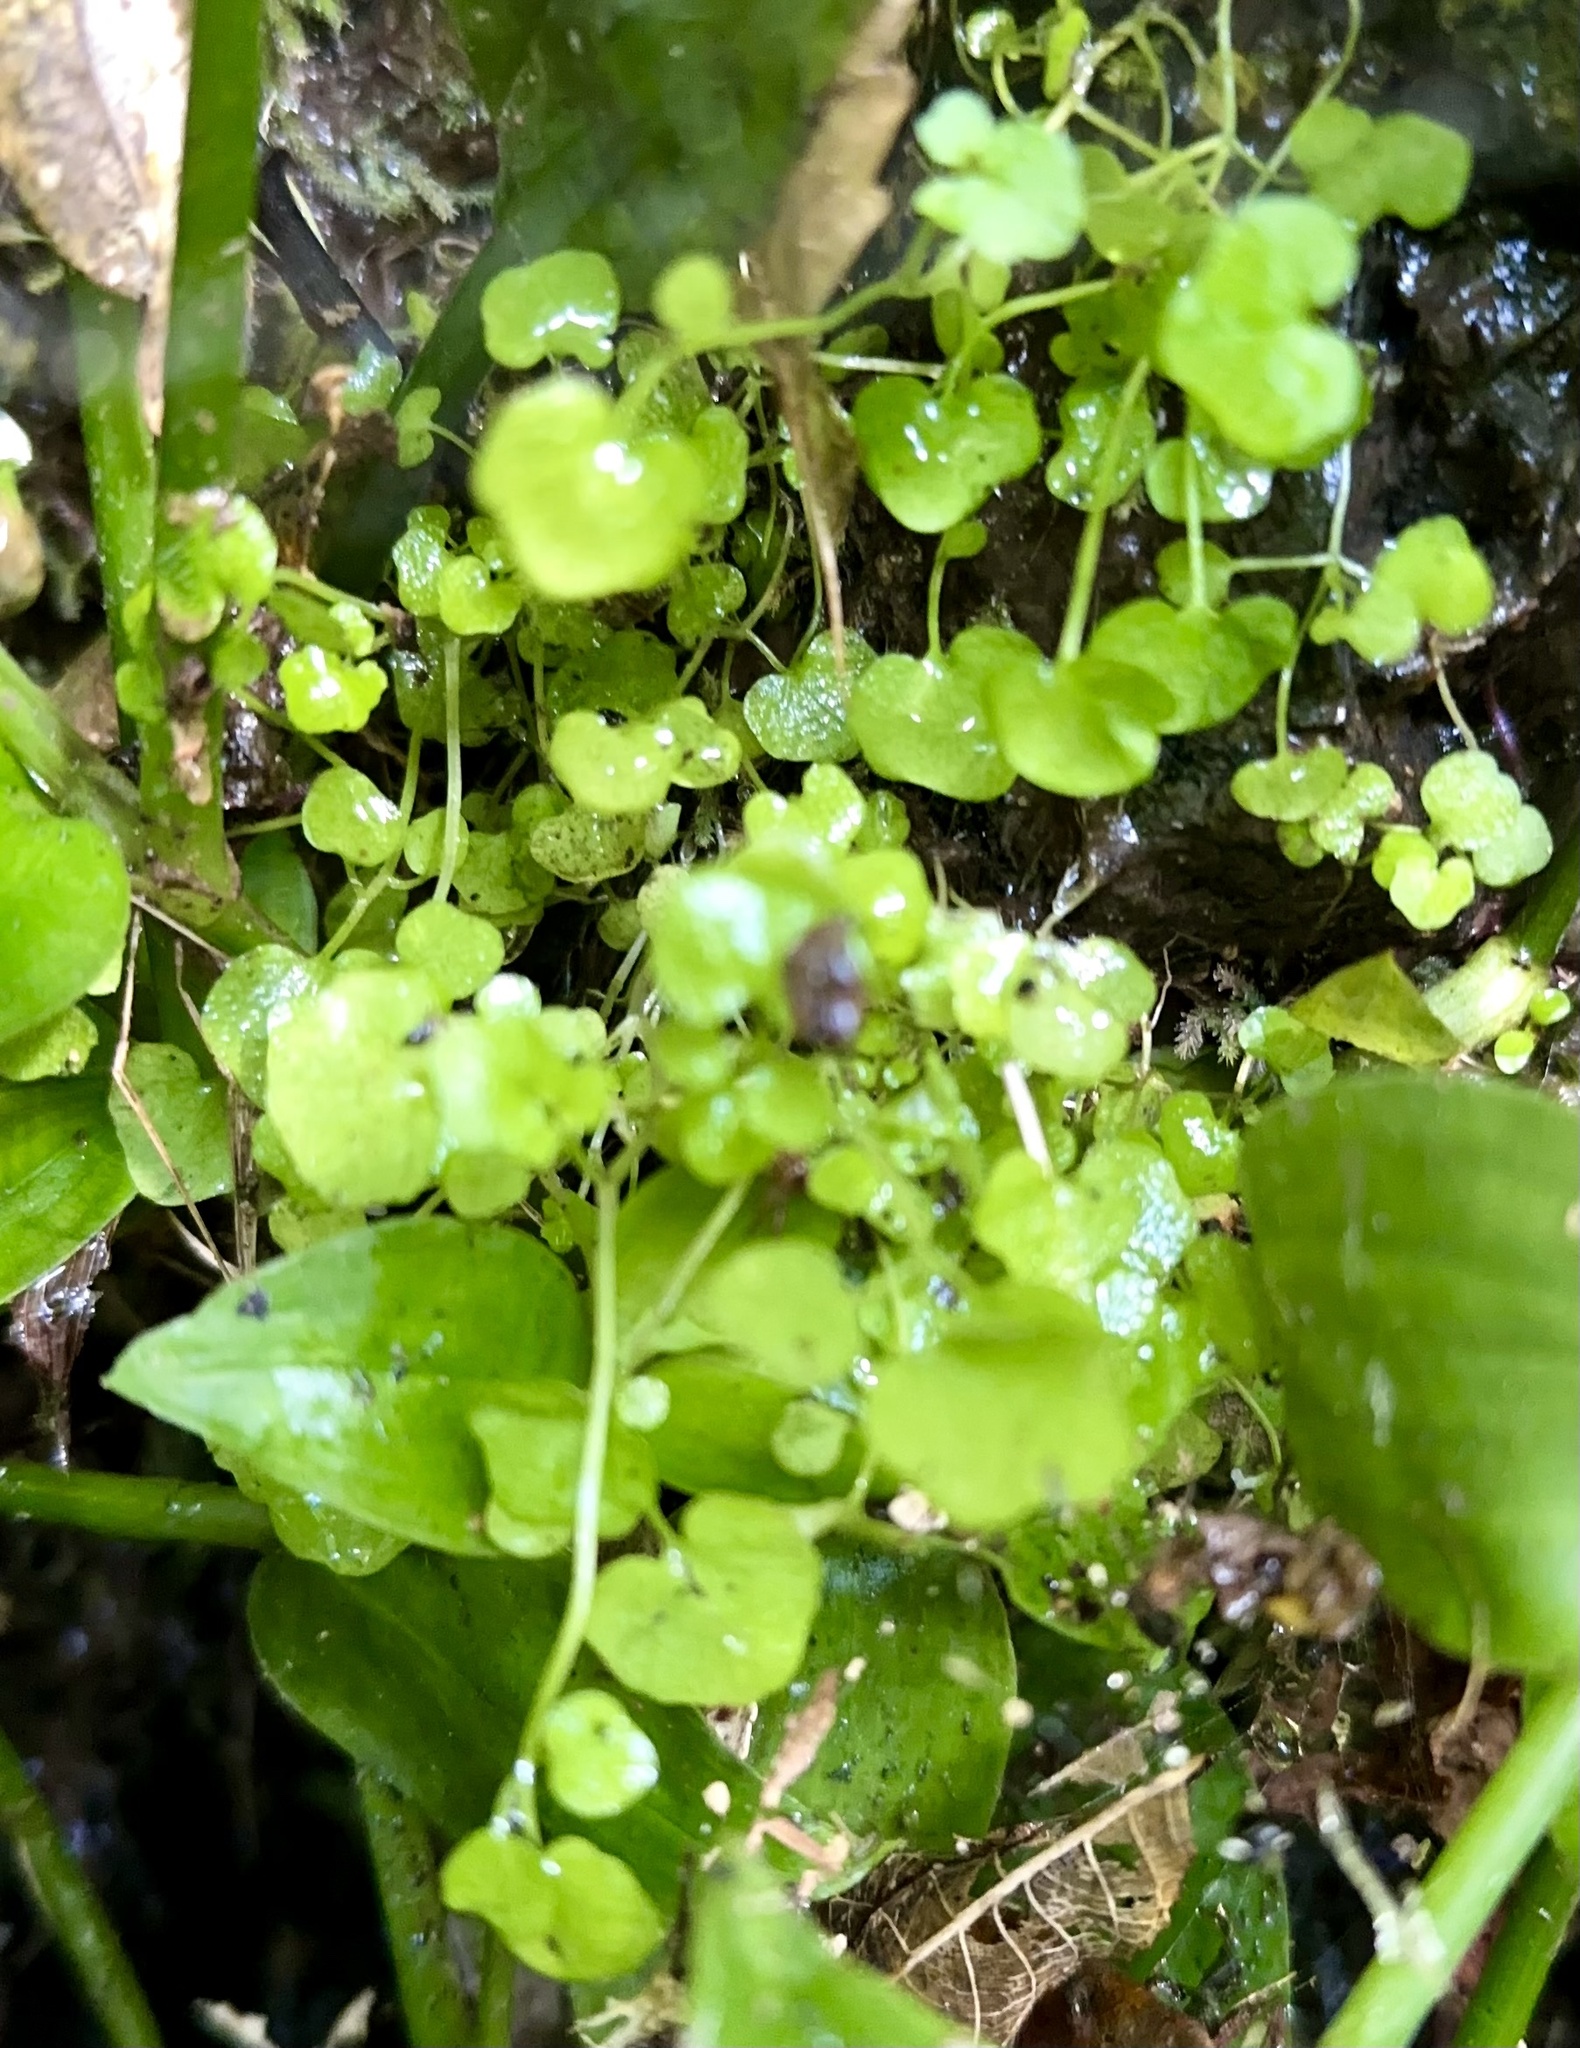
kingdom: Plantae
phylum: Tracheophyta
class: Magnoliopsida
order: Apiales
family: Araliaceae
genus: Hydrocotyle
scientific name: Hydrocotyle novae-zeelandiae
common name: New zealand pennywort
